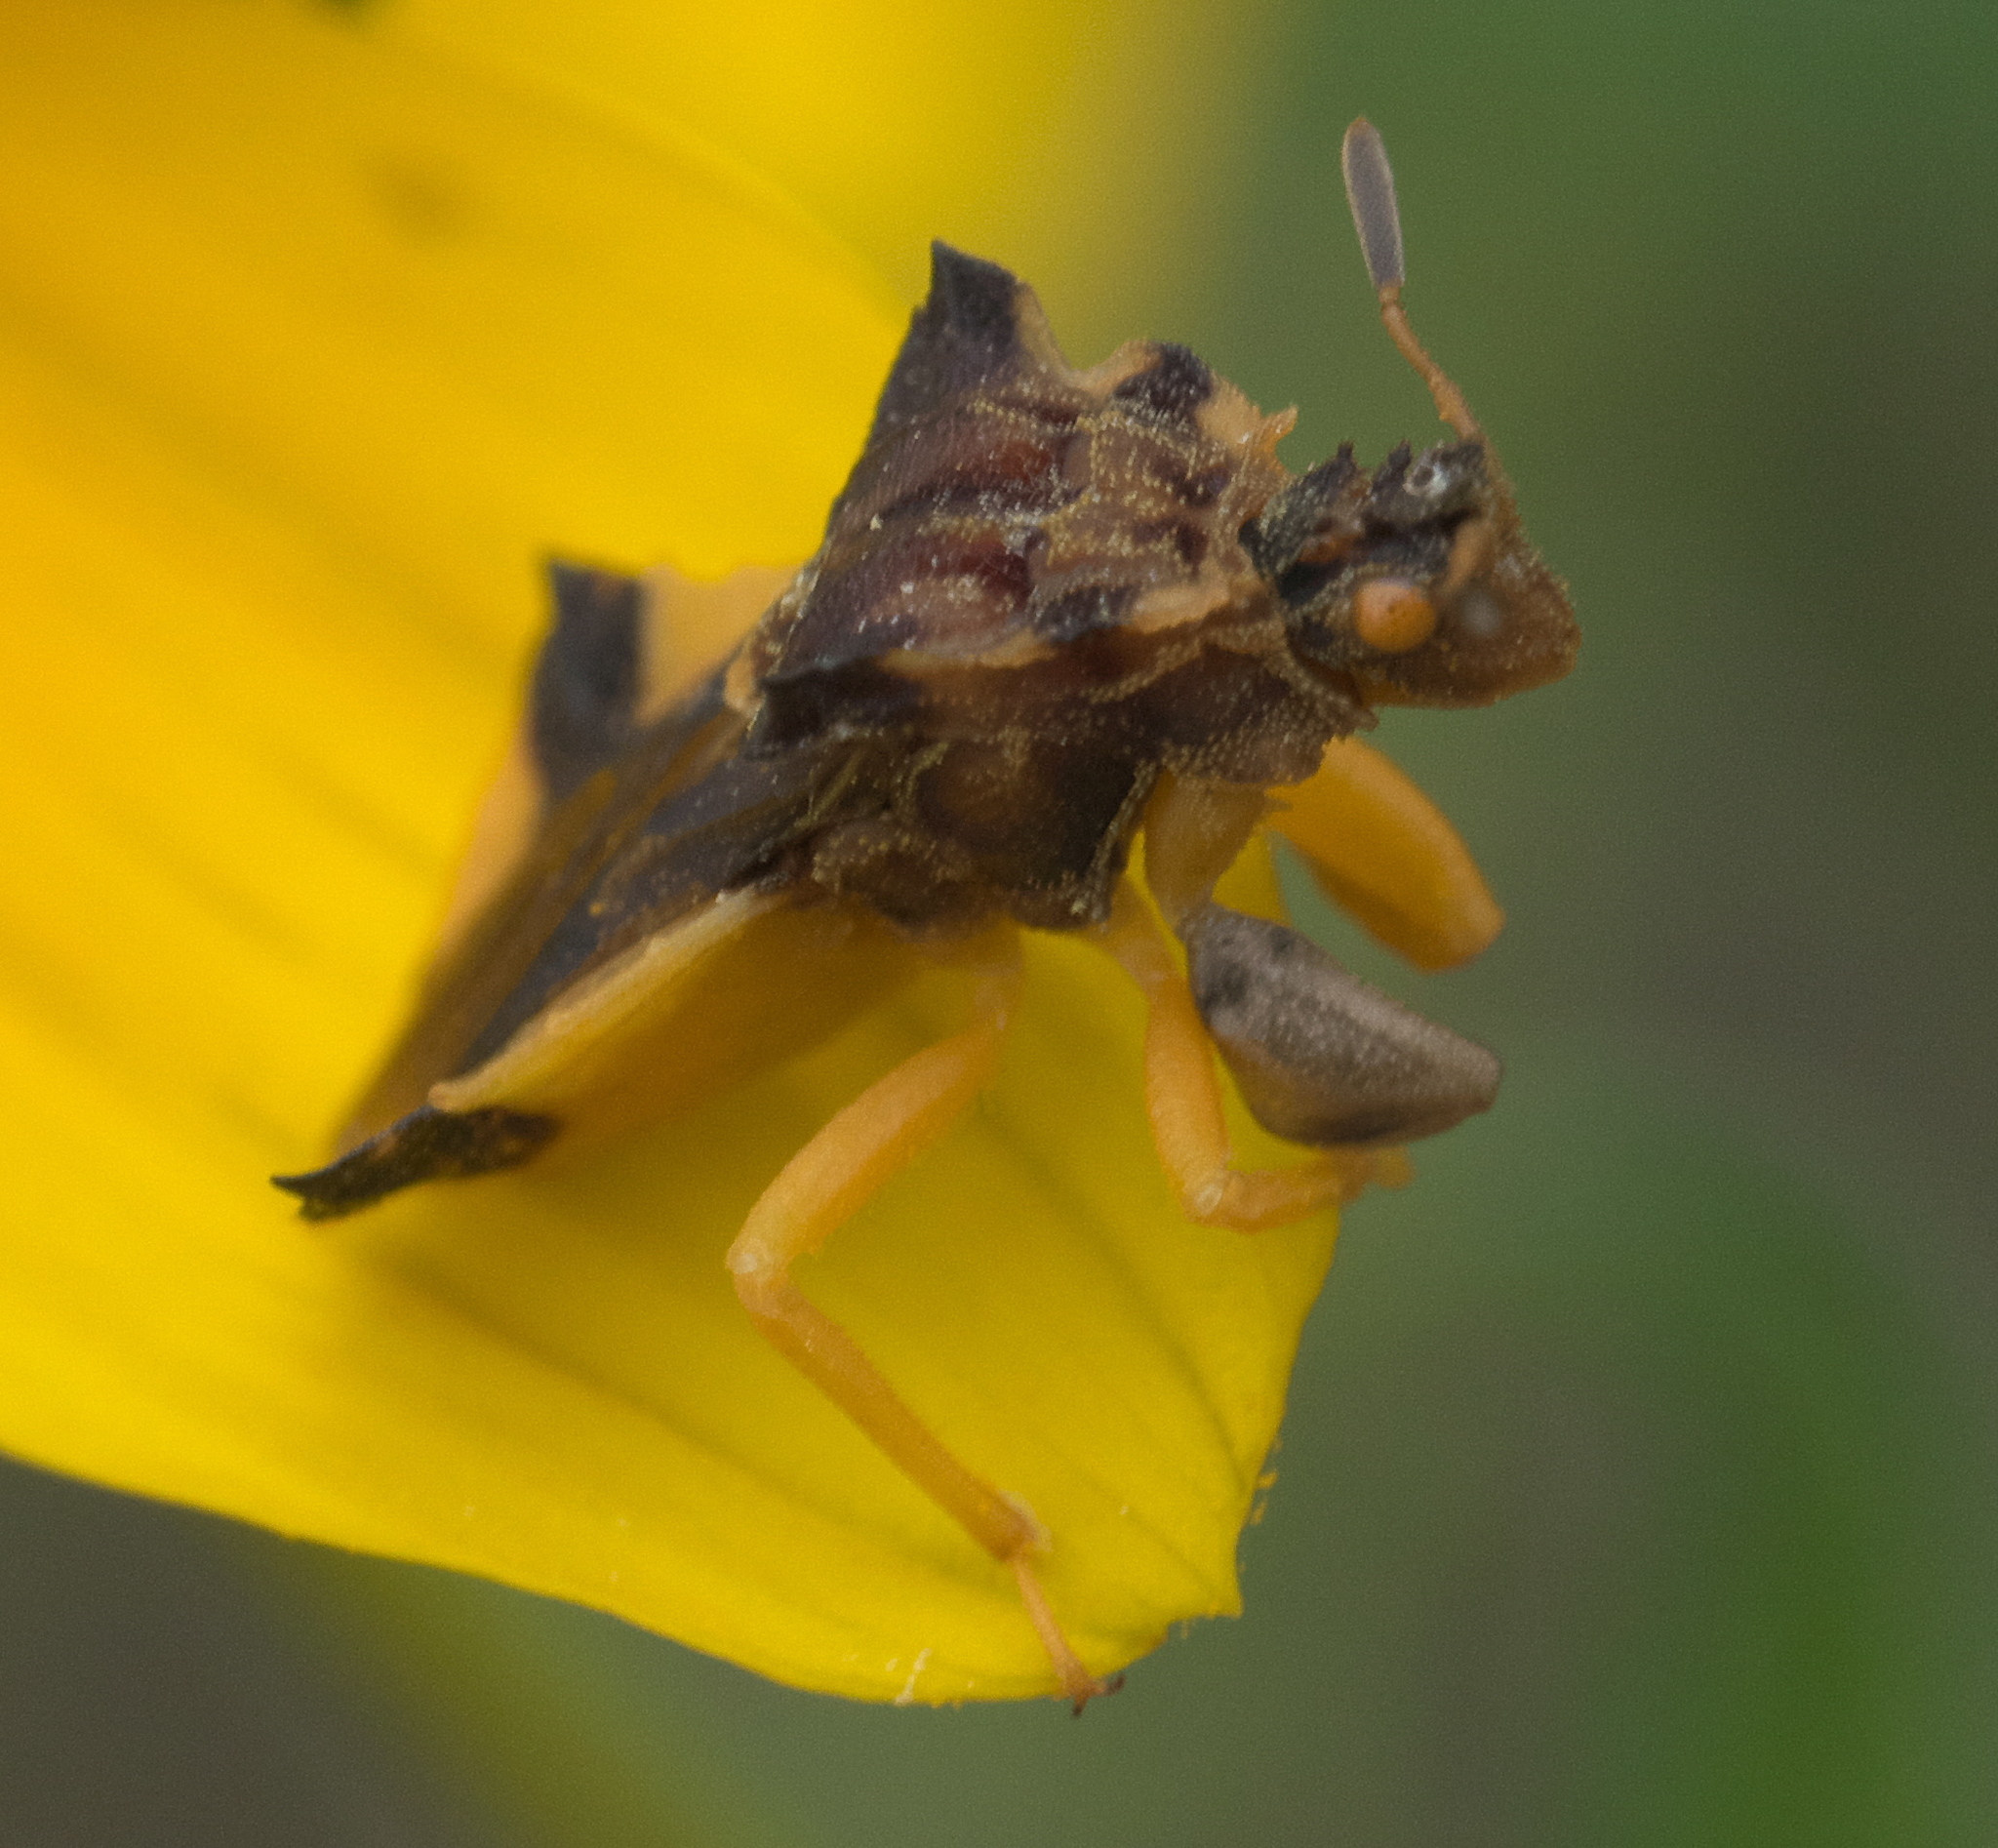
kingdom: Animalia
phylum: Arthropoda
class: Insecta
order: Hemiptera
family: Reduviidae
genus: Phymata
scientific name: Phymata americana
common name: Jagged ambush bug
